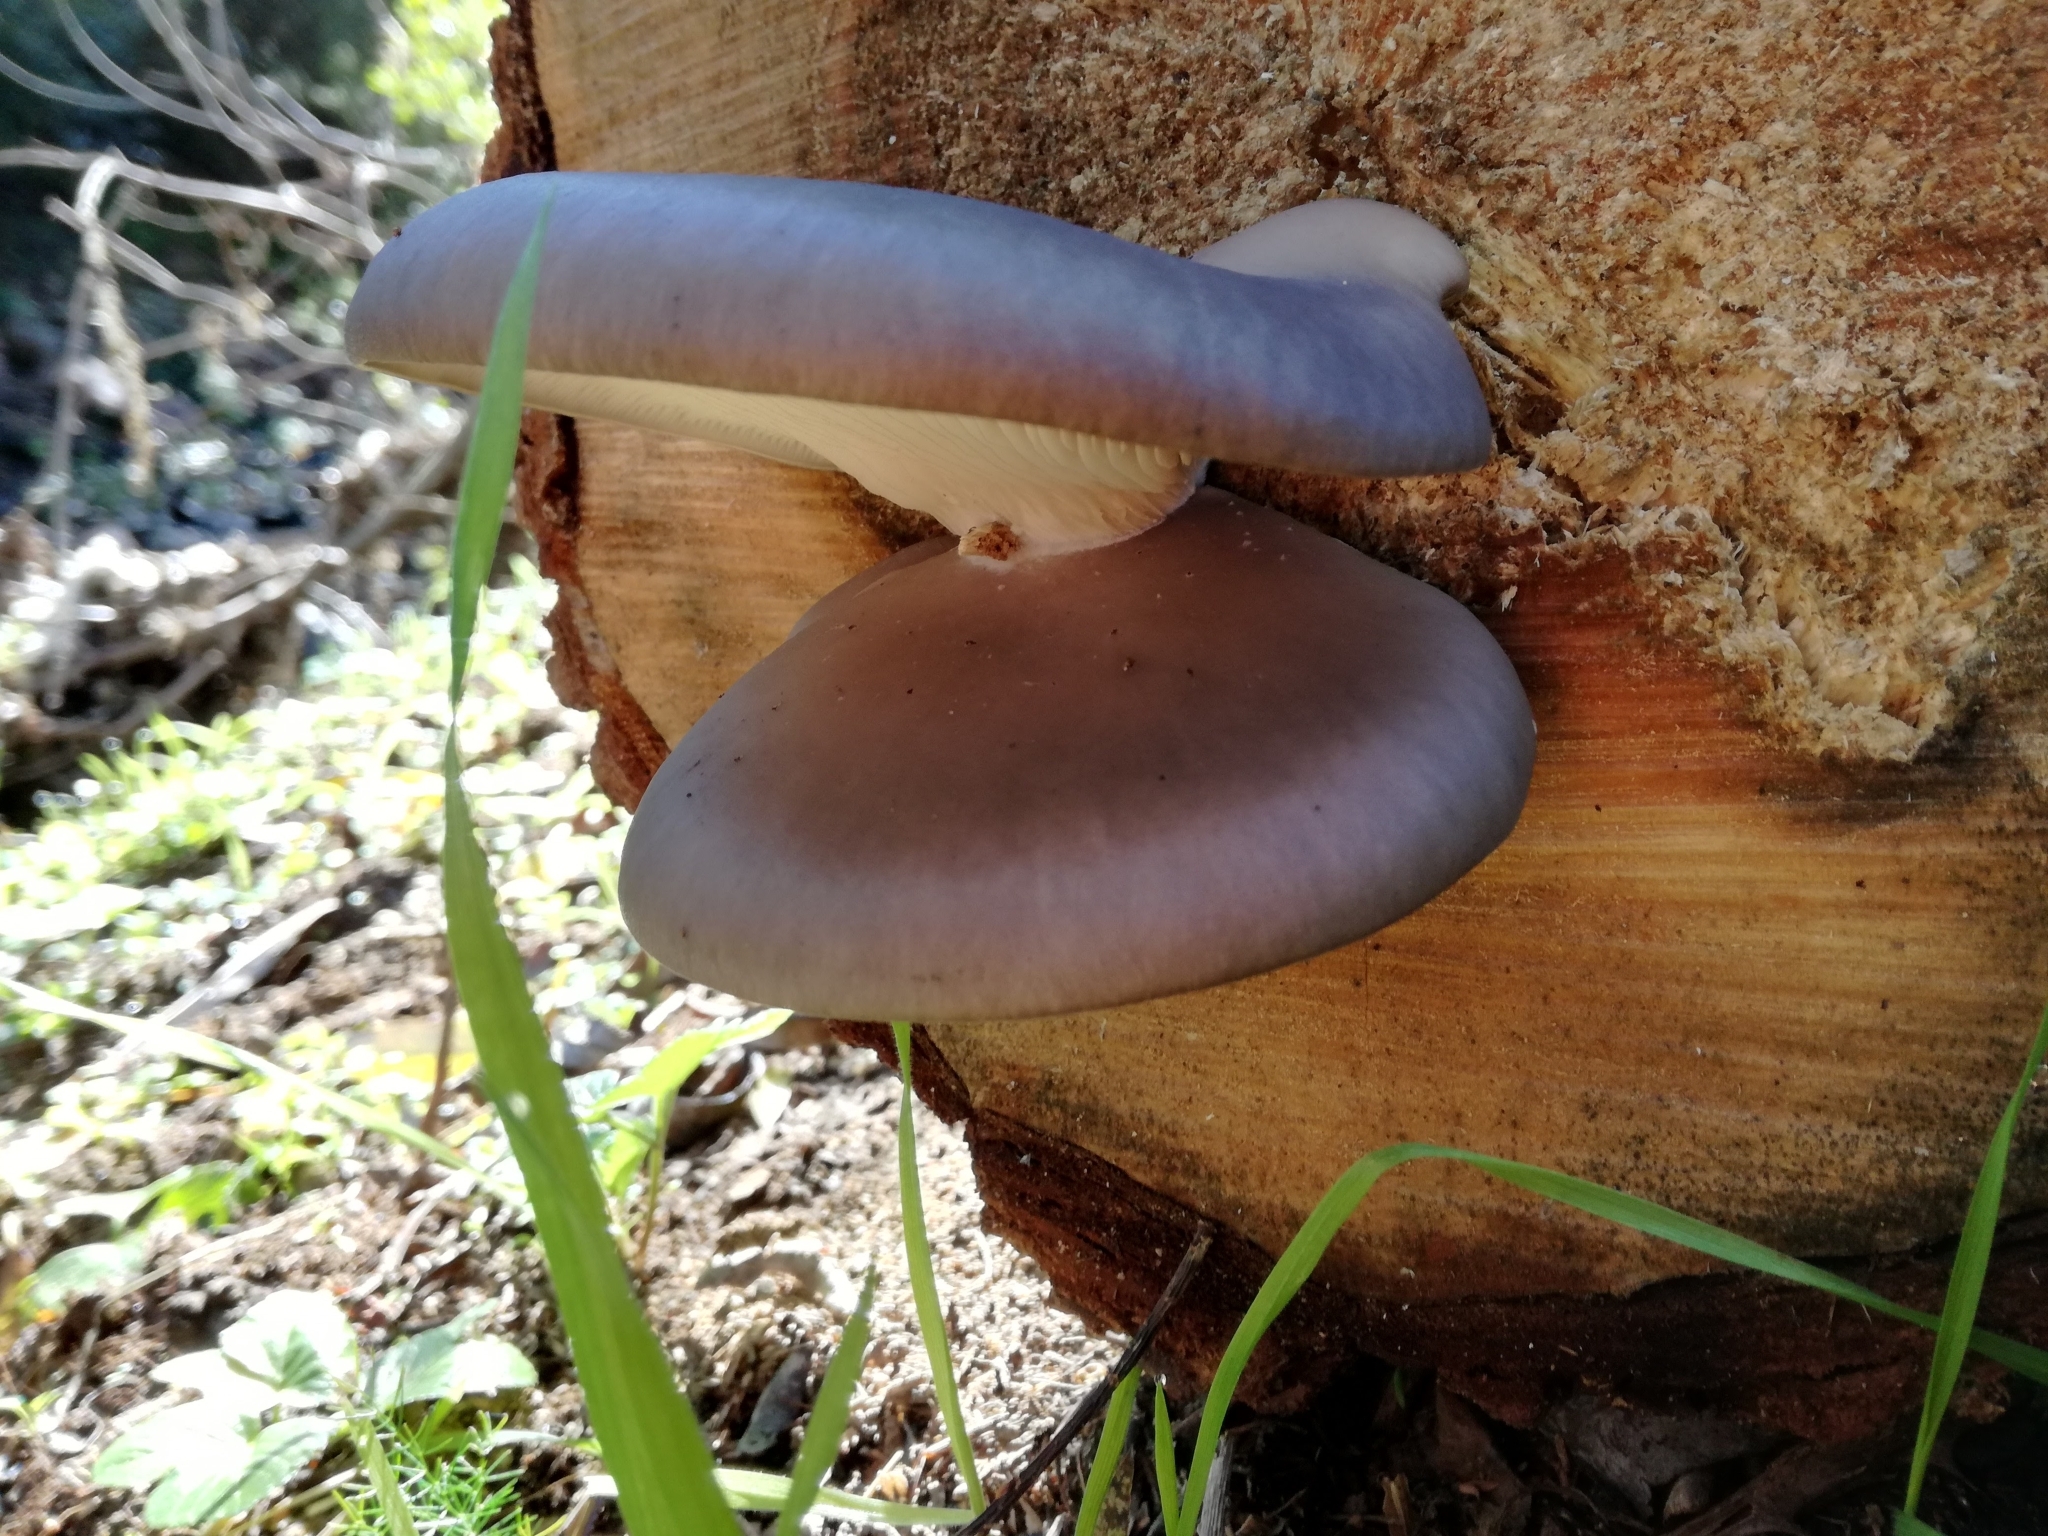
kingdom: Fungi
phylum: Basidiomycota
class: Agaricomycetes
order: Agaricales
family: Pleurotaceae
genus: Pleurotus
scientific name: Pleurotus ostreatus
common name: Oyster mushroom
